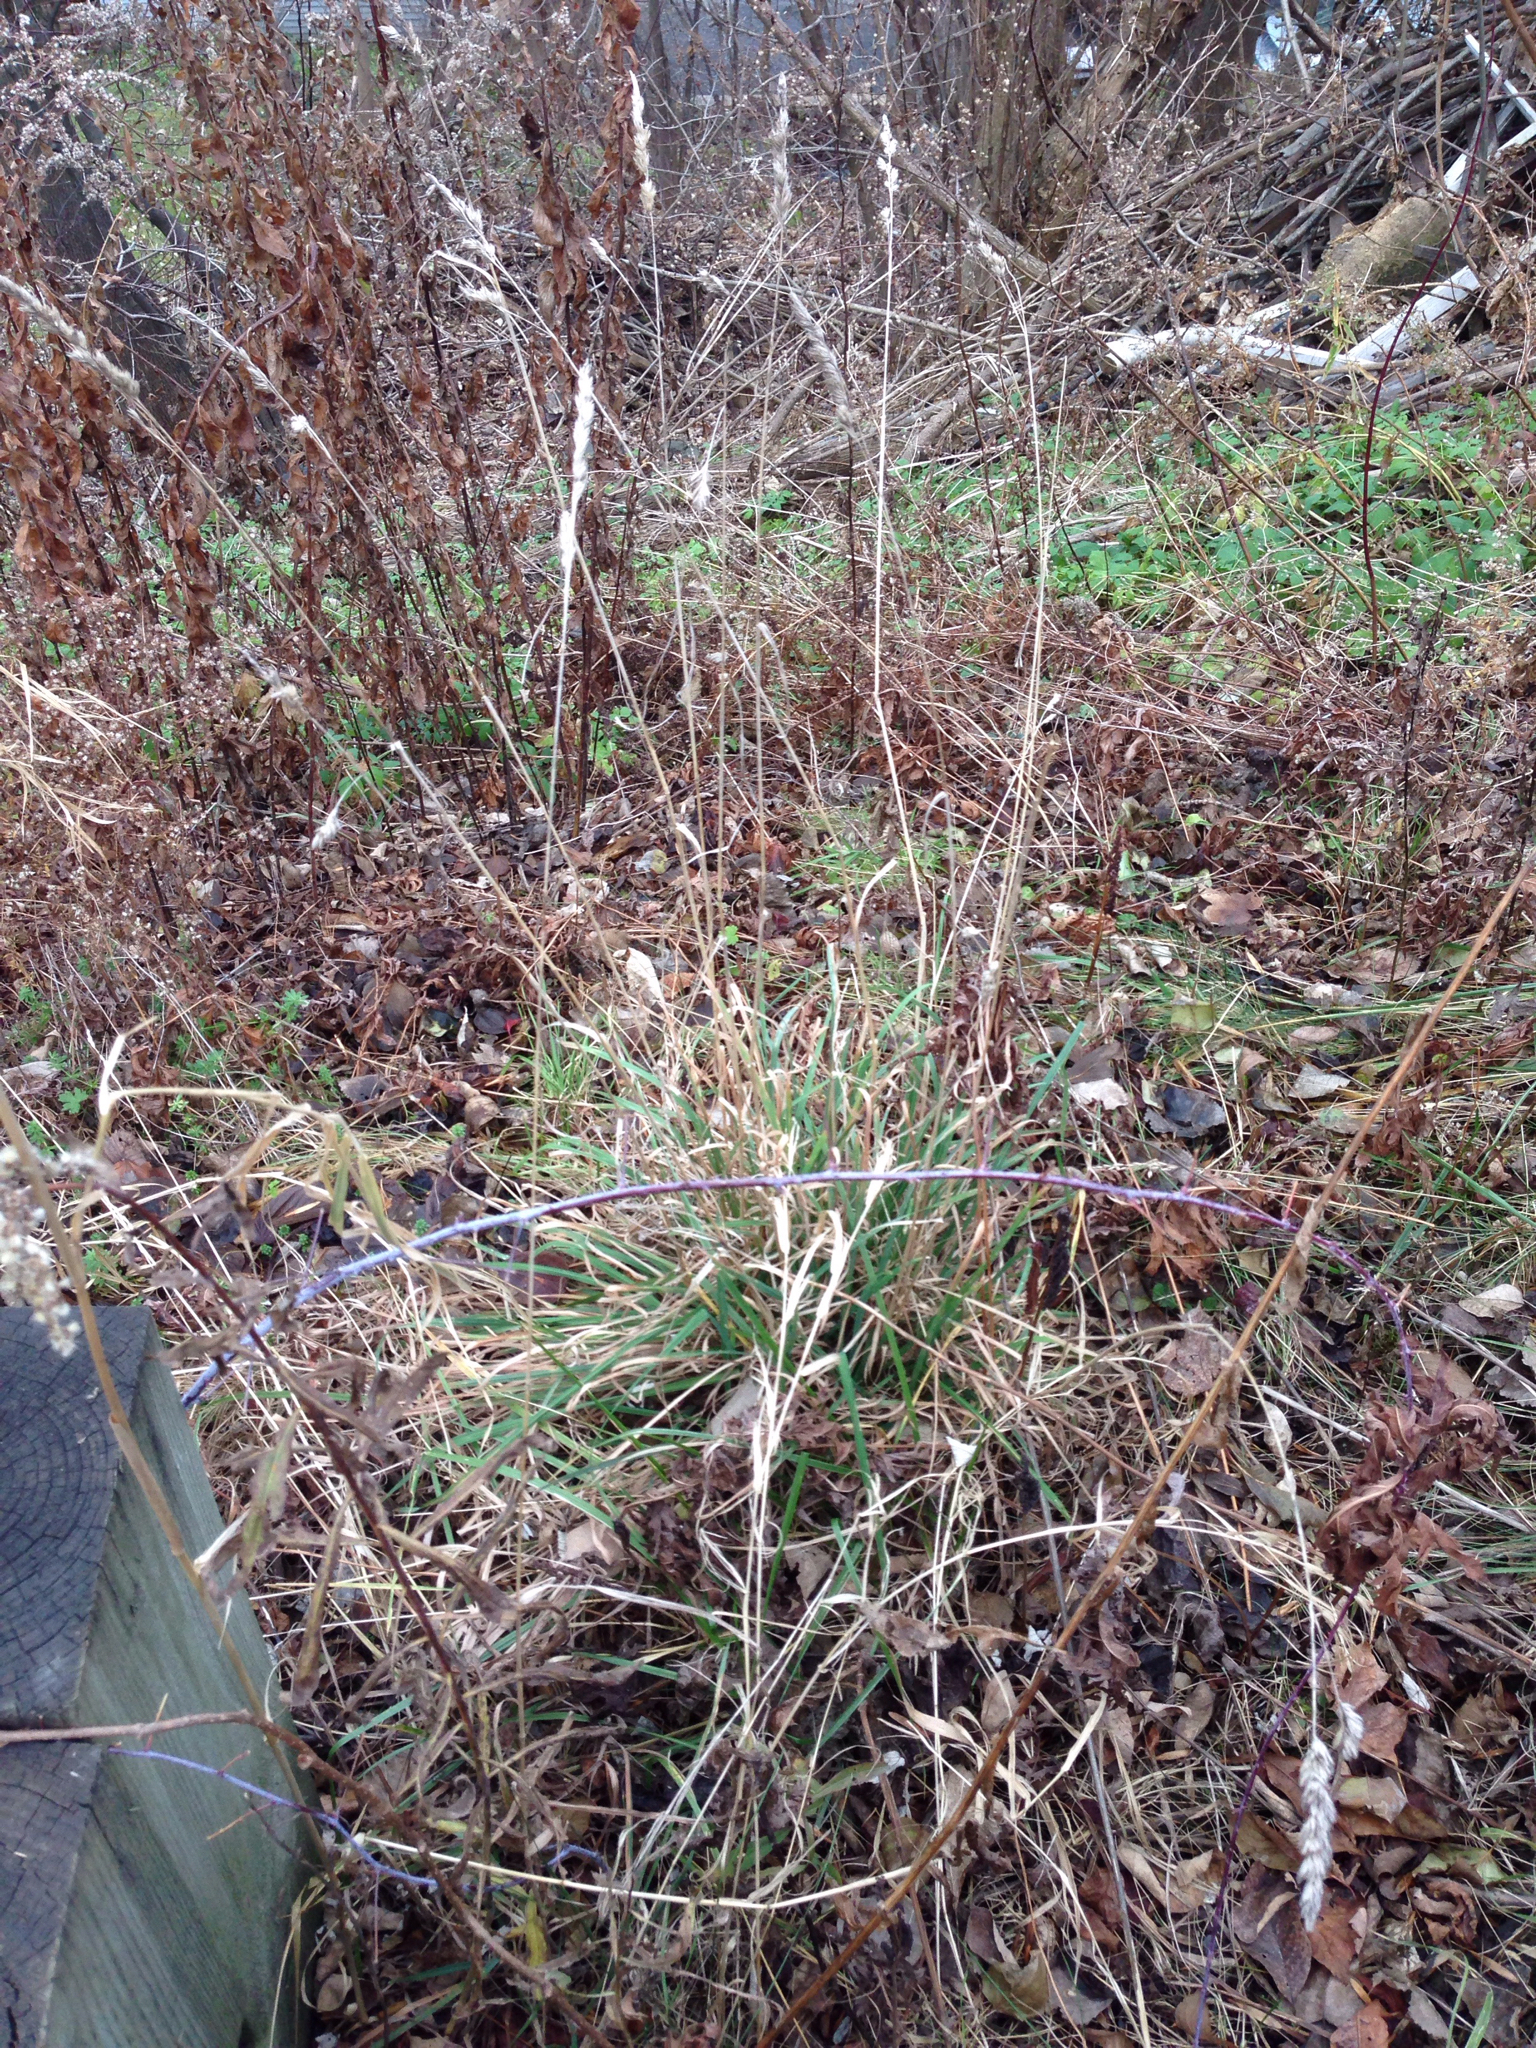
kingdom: Plantae
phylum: Tracheophyta
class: Liliopsida
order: Poales
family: Poaceae
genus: Dactylis
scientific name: Dactylis glomerata
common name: Orchardgrass
